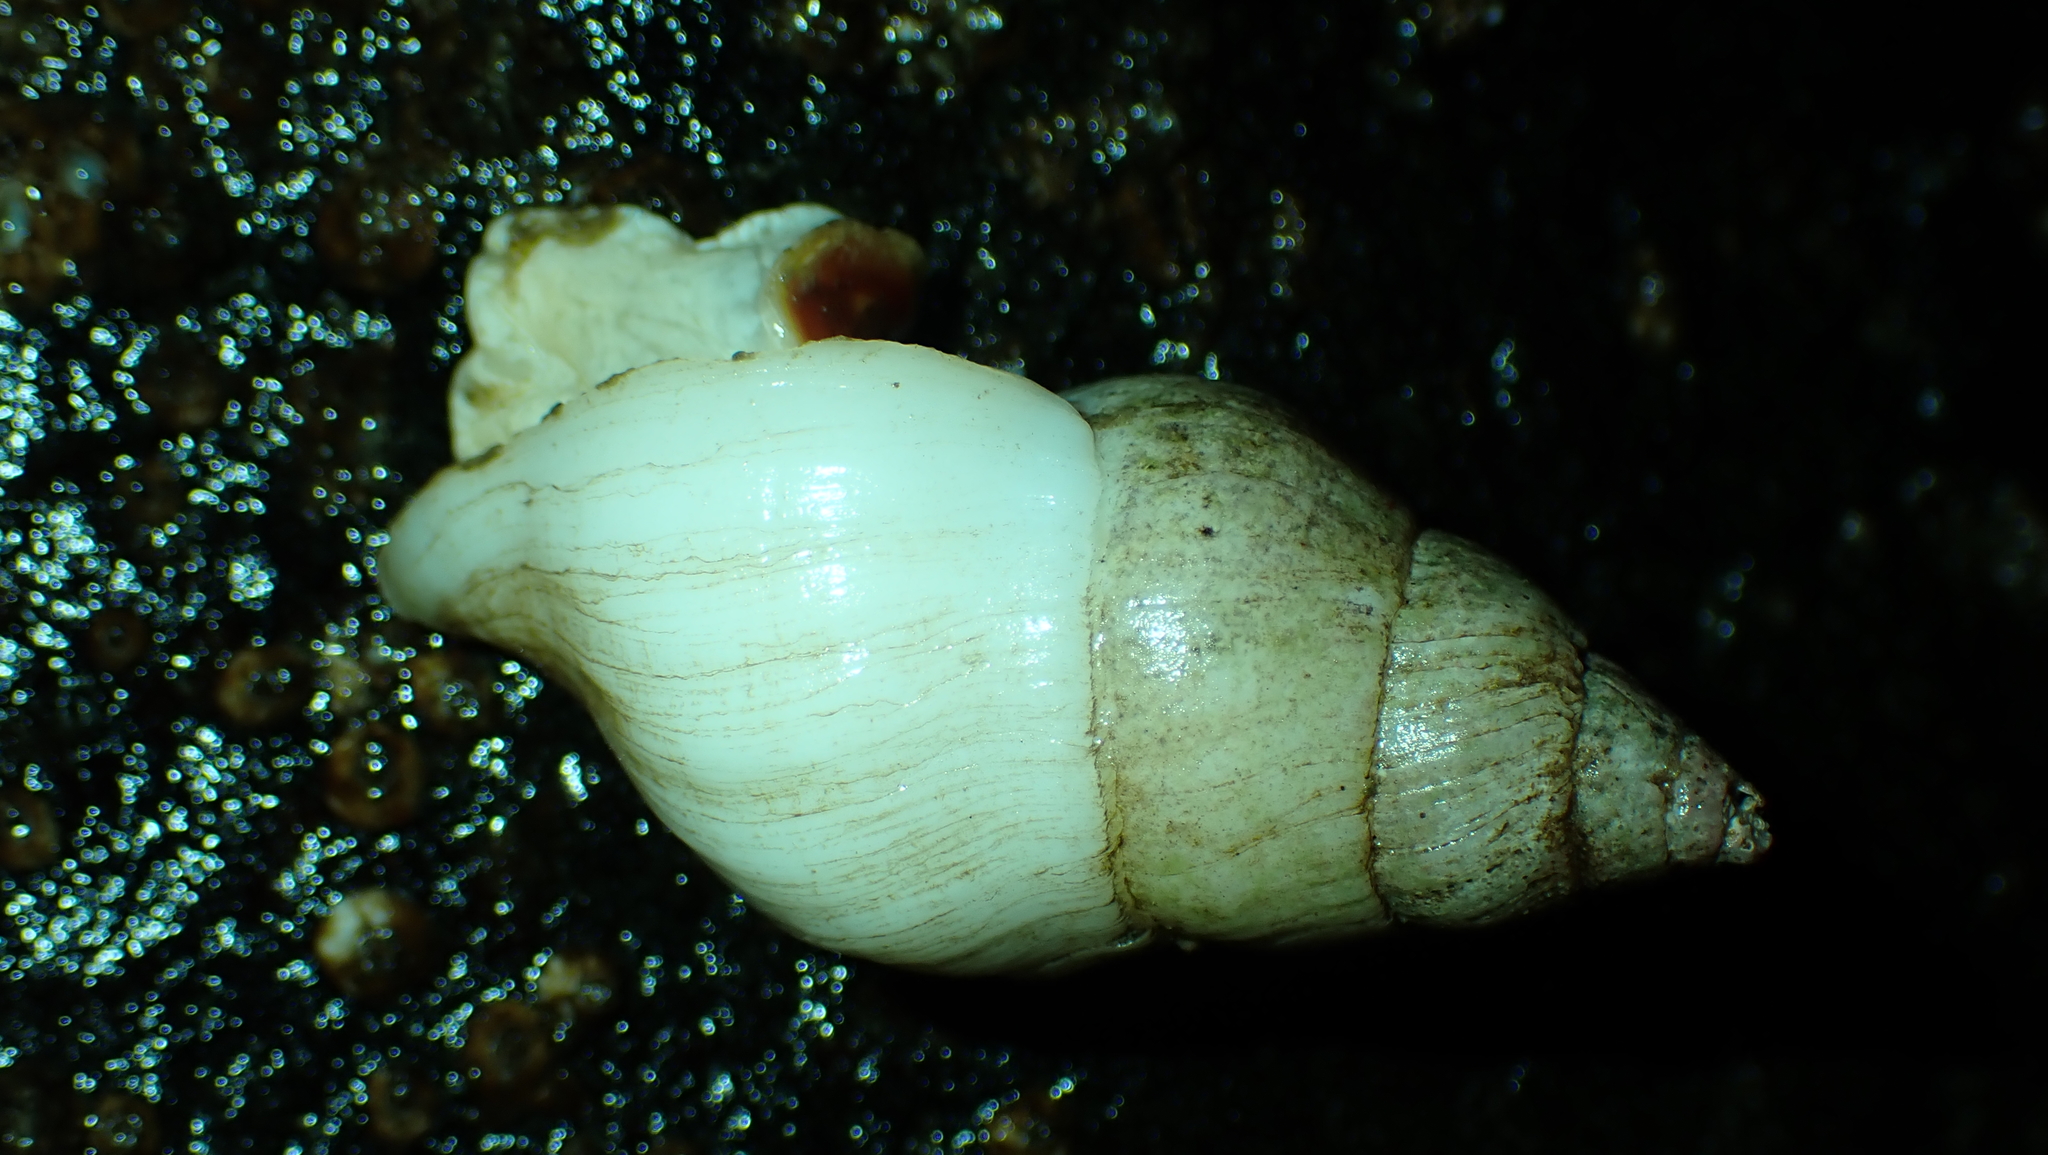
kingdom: Animalia
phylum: Mollusca
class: Gastropoda
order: Neogastropoda
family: Muricidae
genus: Nucella
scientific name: Nucella lamellosa
